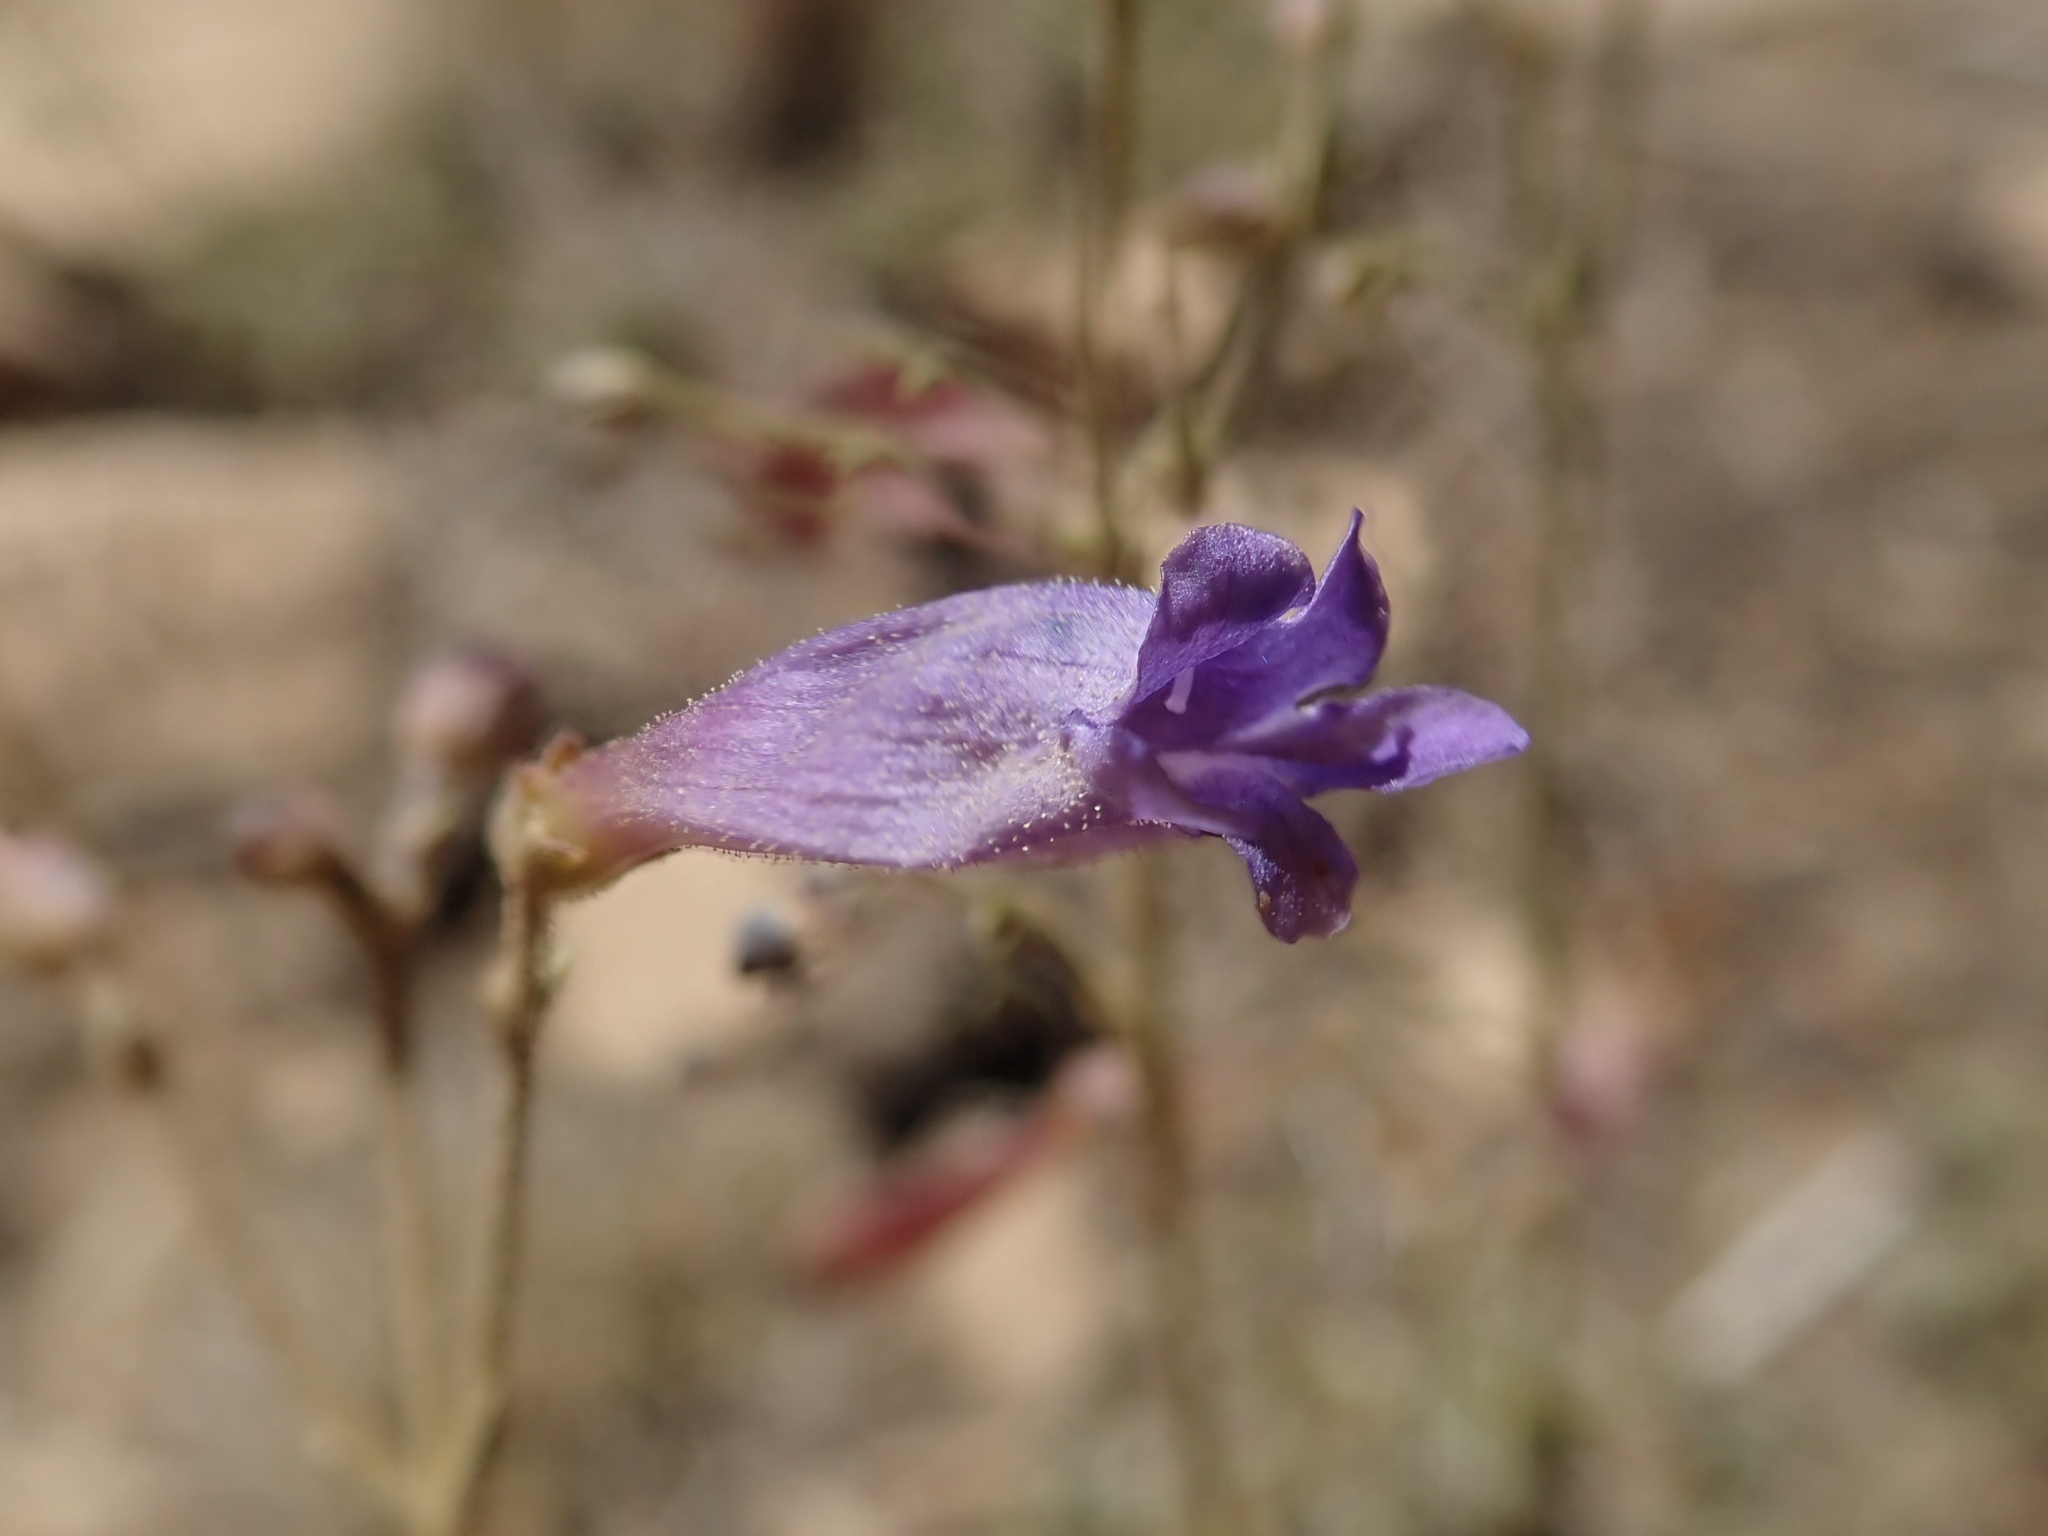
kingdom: Plantae
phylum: Tracheophyta
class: Magnoliopsida
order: Lamiales
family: Plantaginaceae
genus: Penstemon
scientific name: Penstemon scapoides
